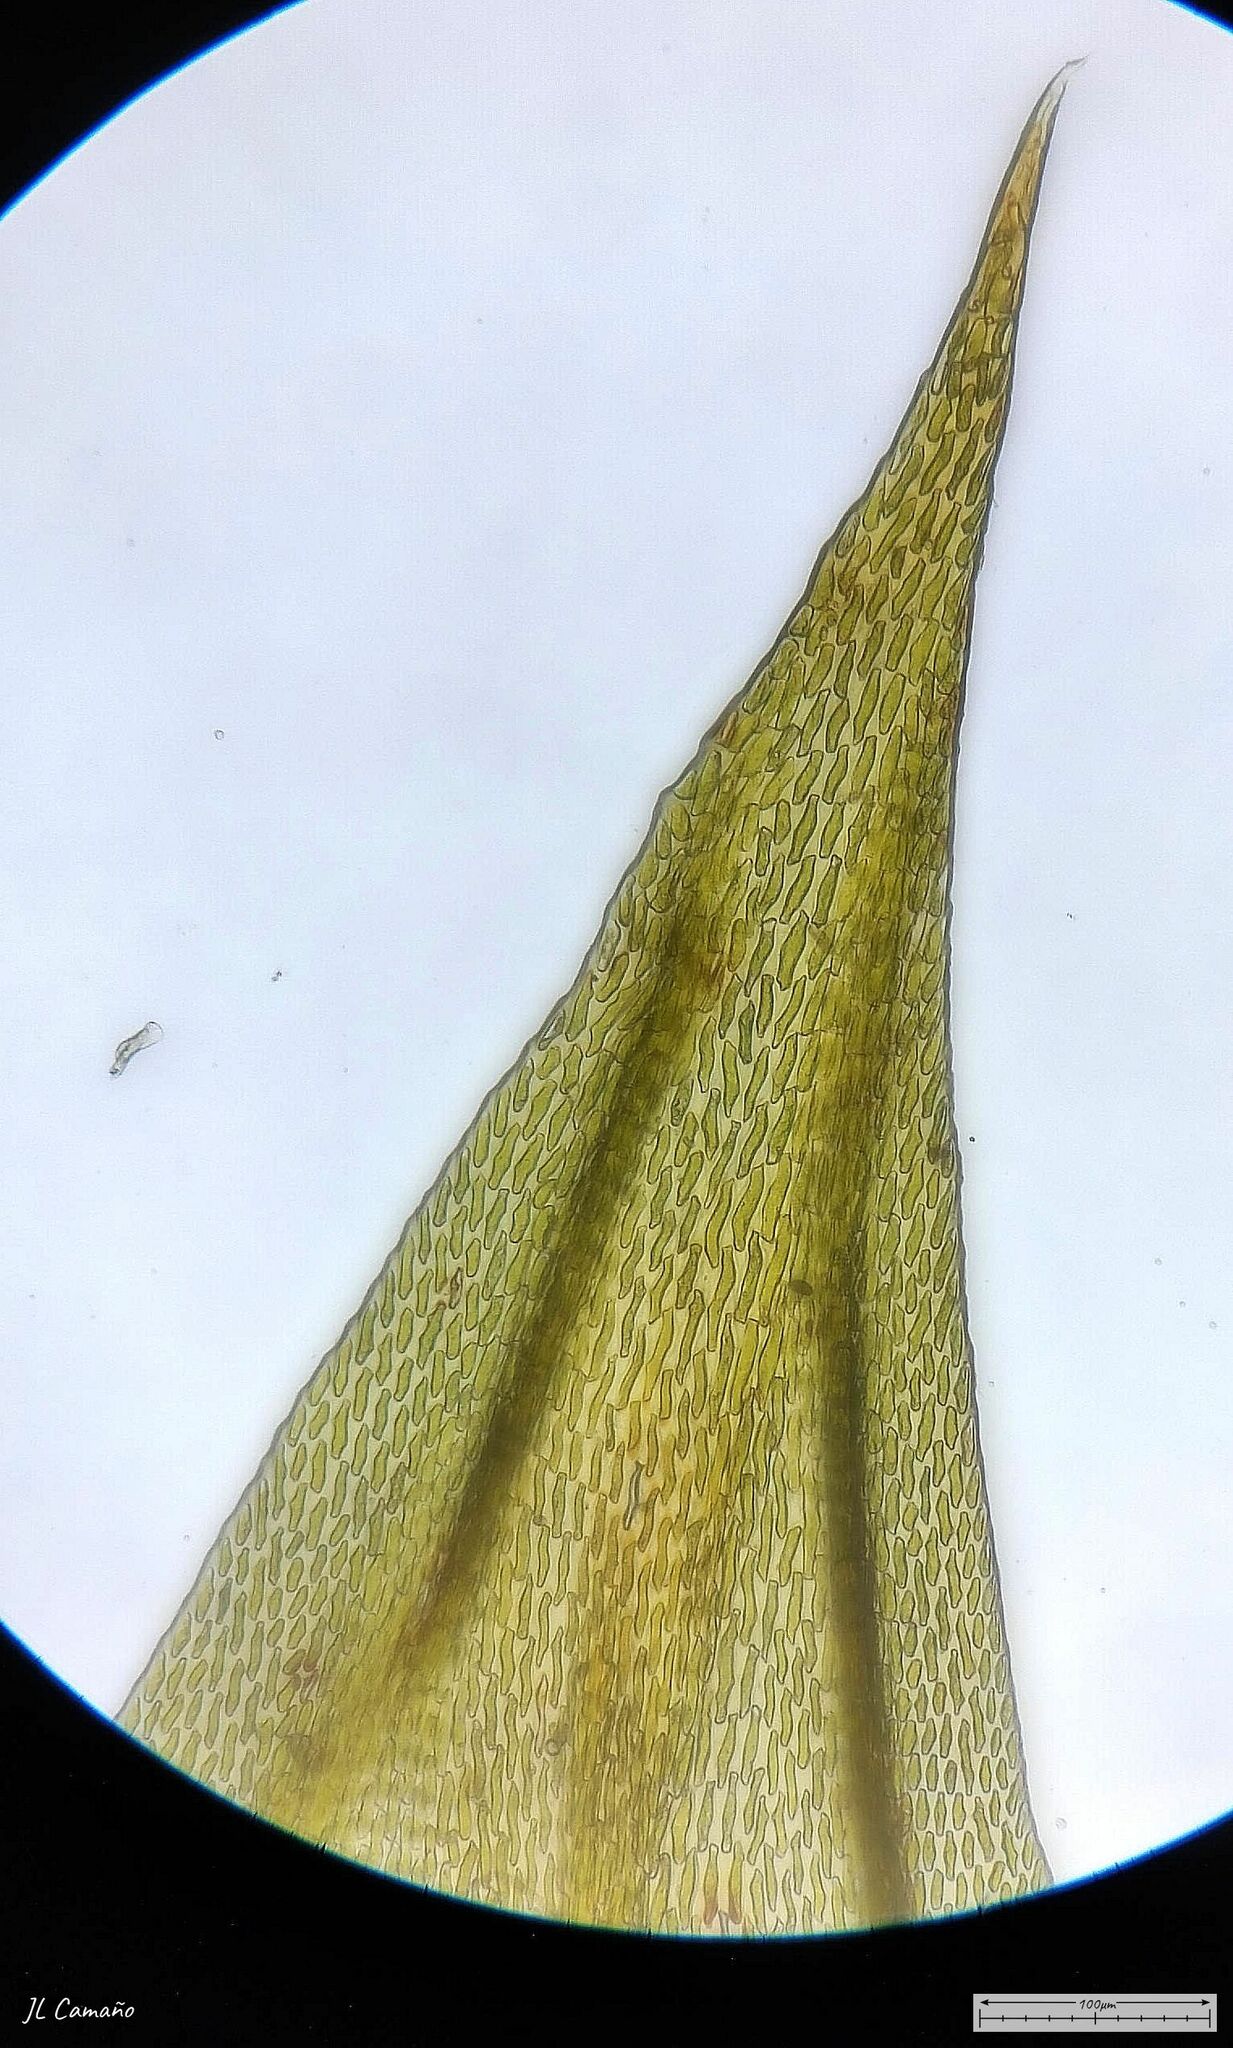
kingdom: Plantae
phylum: Bryophyta
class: Bryopsida
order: Hypnales
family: Leucodontaceae
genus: Leucodon
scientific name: Leucodon sciuroides
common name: Squirrel-tail moss
